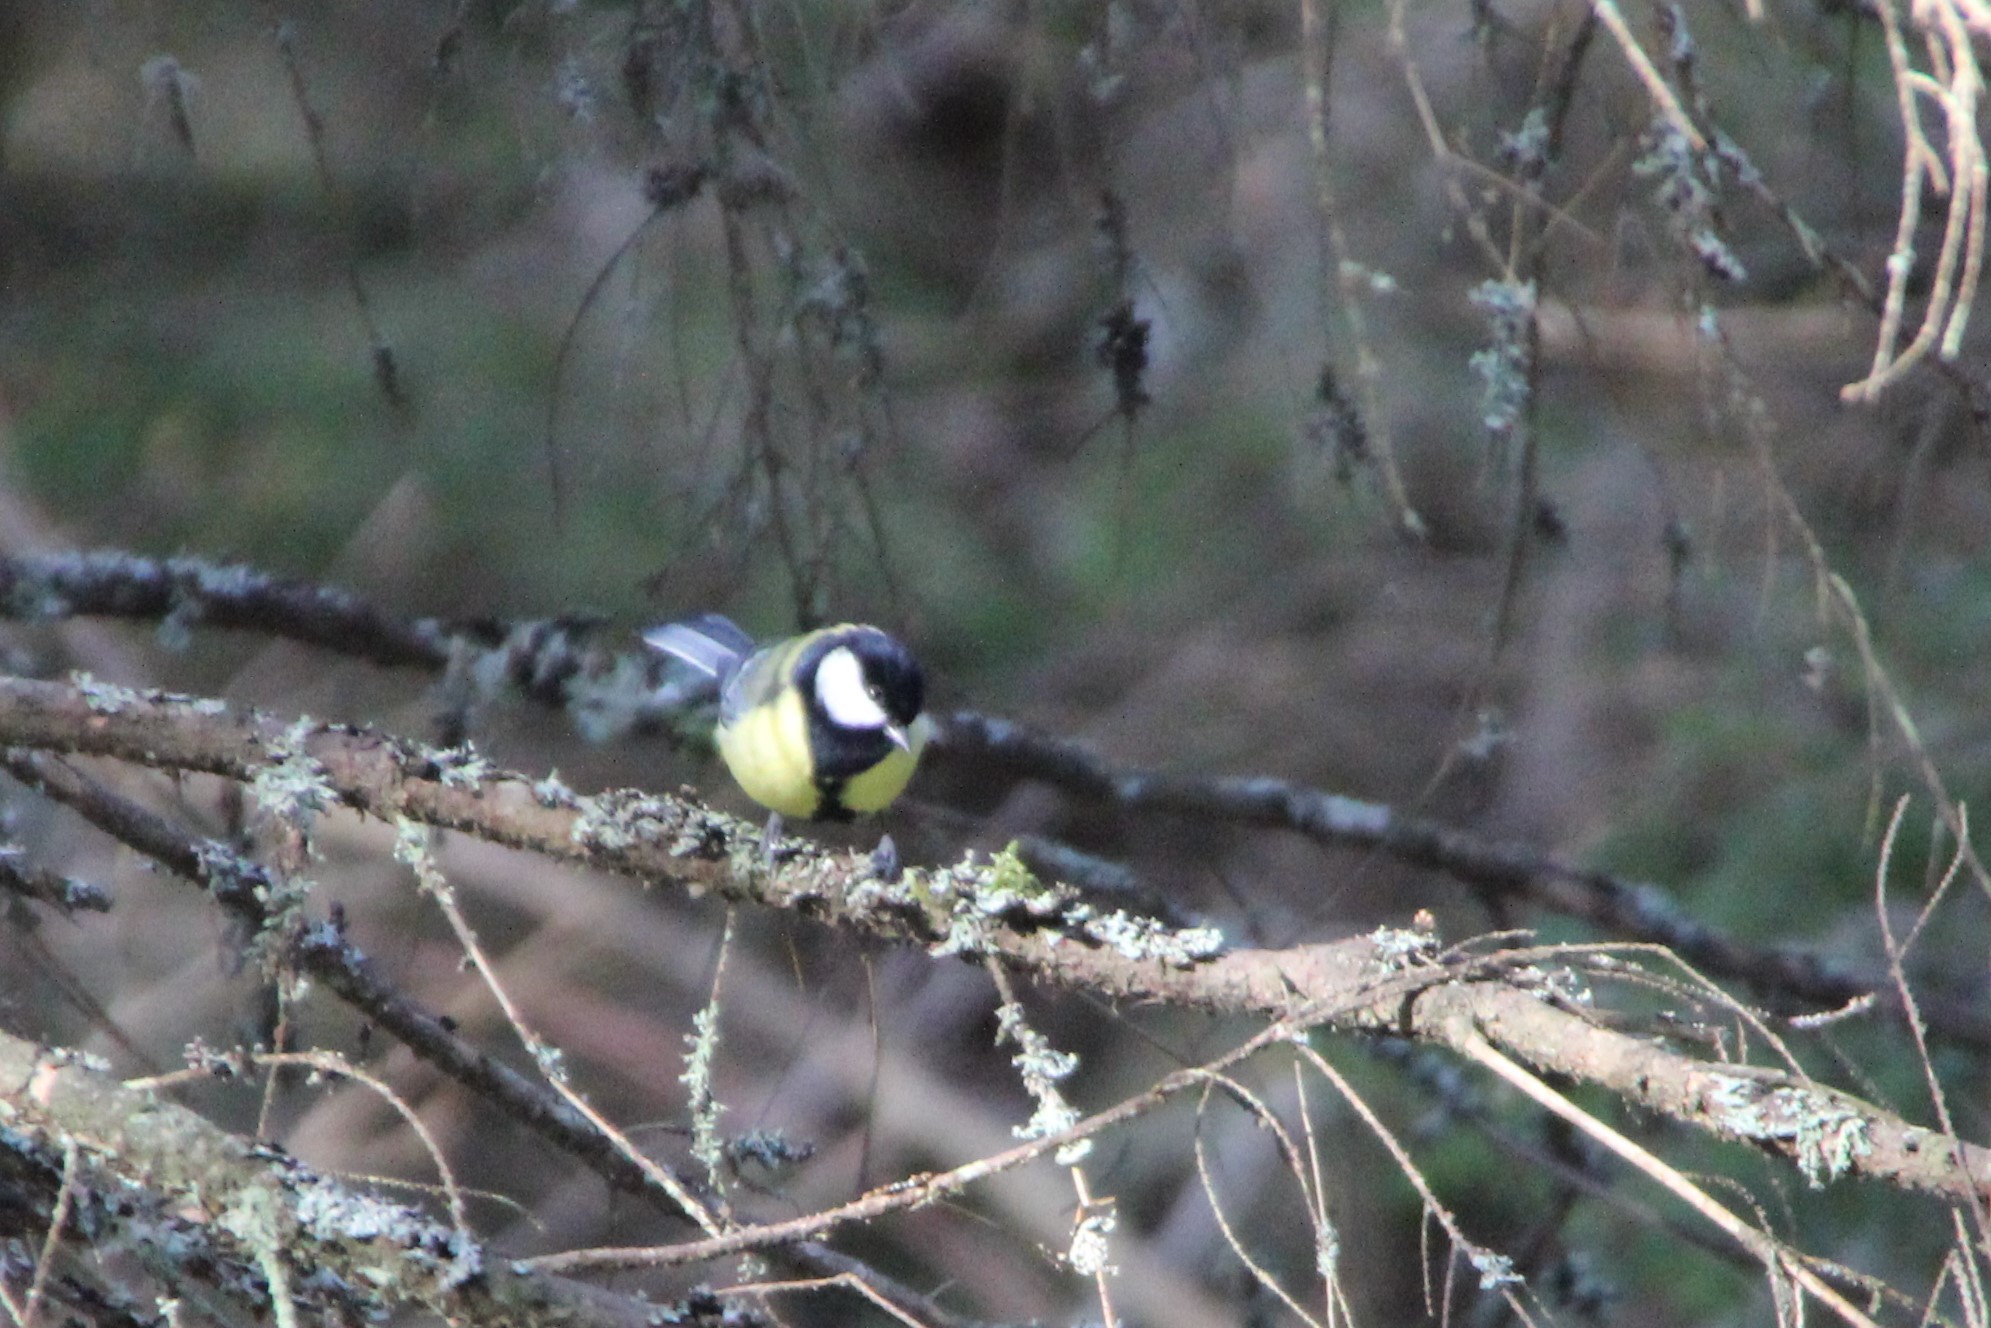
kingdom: Animalia
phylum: Chordata
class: Aves
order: Passeriformes
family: Paridae
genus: Parus
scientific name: Parus major
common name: Great tit
